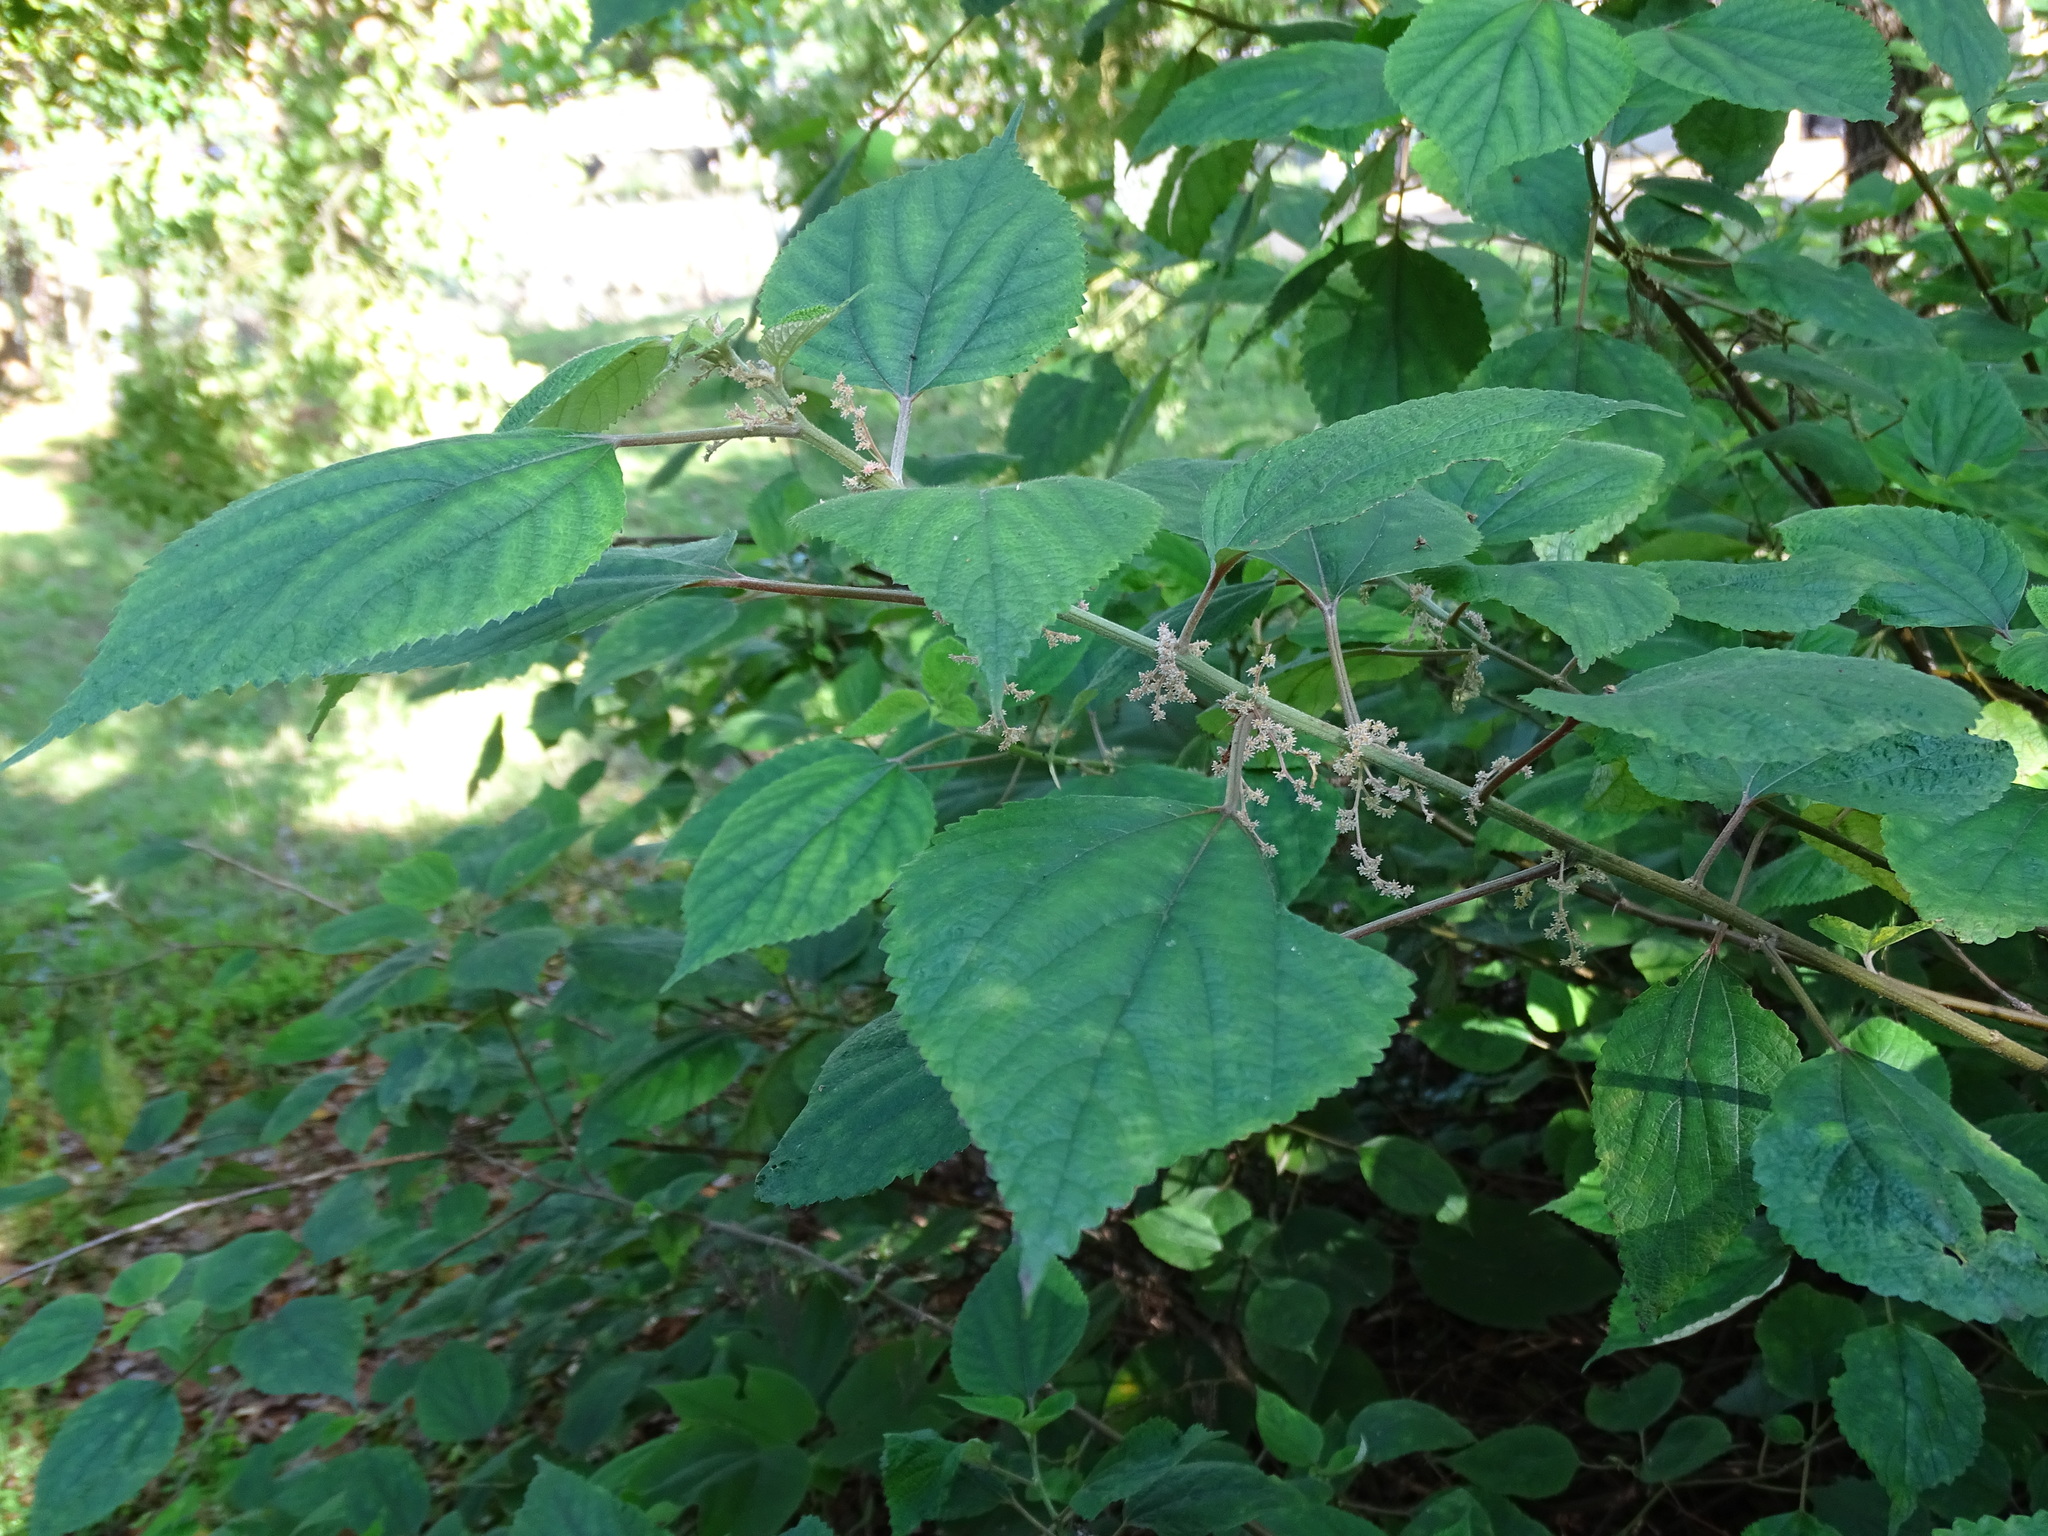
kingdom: Plantae
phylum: Tracheophyta
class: Magnoliopsida
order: Rosales
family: Urticaceae
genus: Boehmeria
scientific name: Boehmeria nivea
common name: Ramie chinese grass
